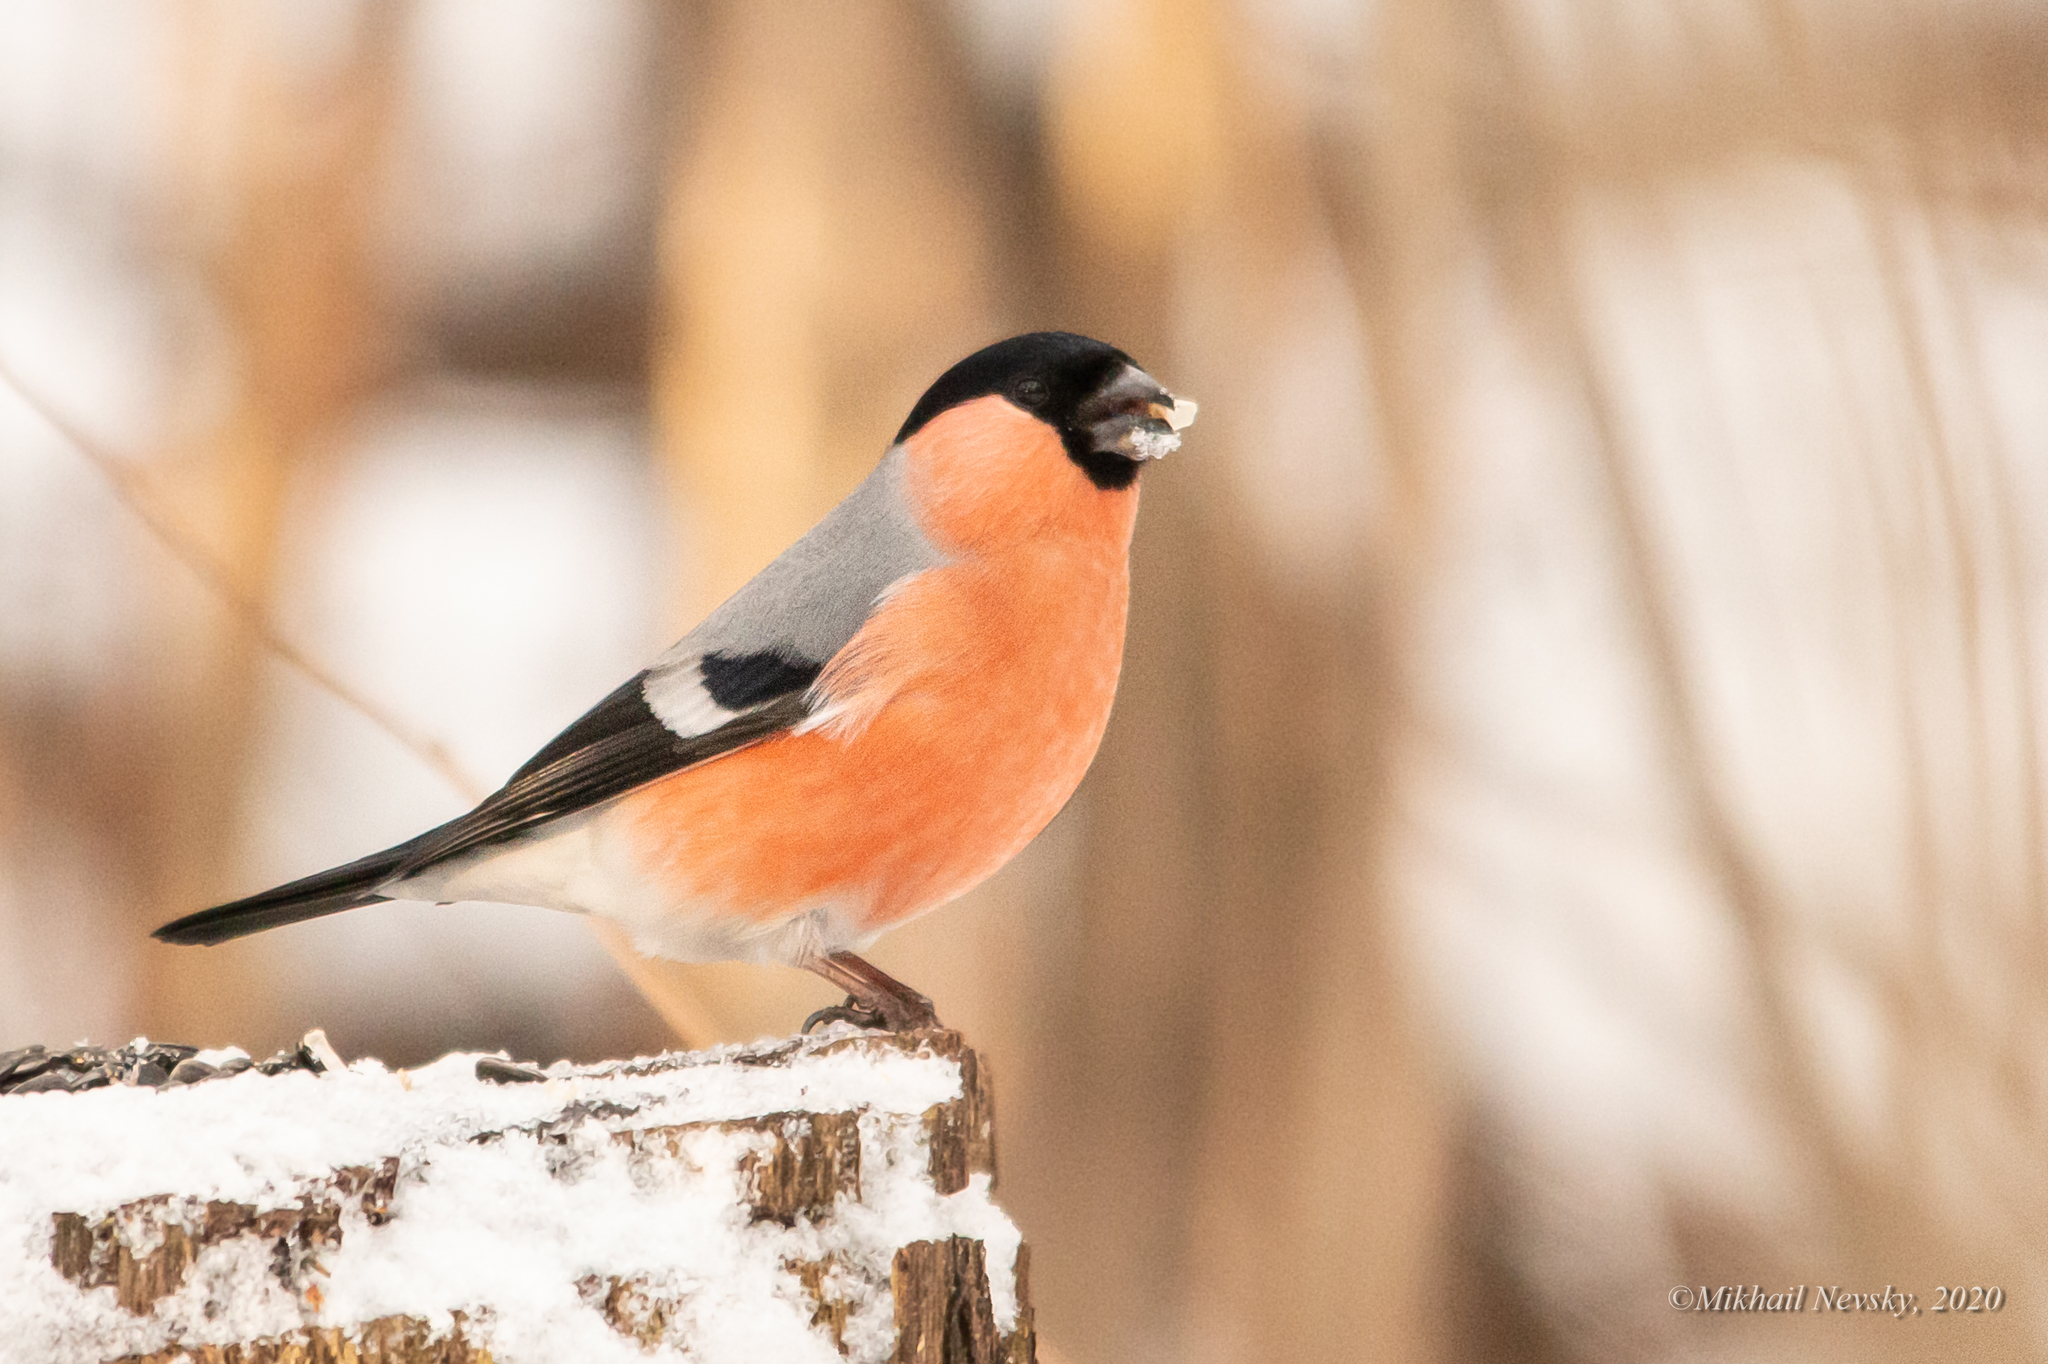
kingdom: Animalia
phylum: Chordata
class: Aves
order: Passeriformes
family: Fringillidae
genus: Pyrrhula
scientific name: Pyrrhula pyrrhula
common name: Eurasian bullfinch
